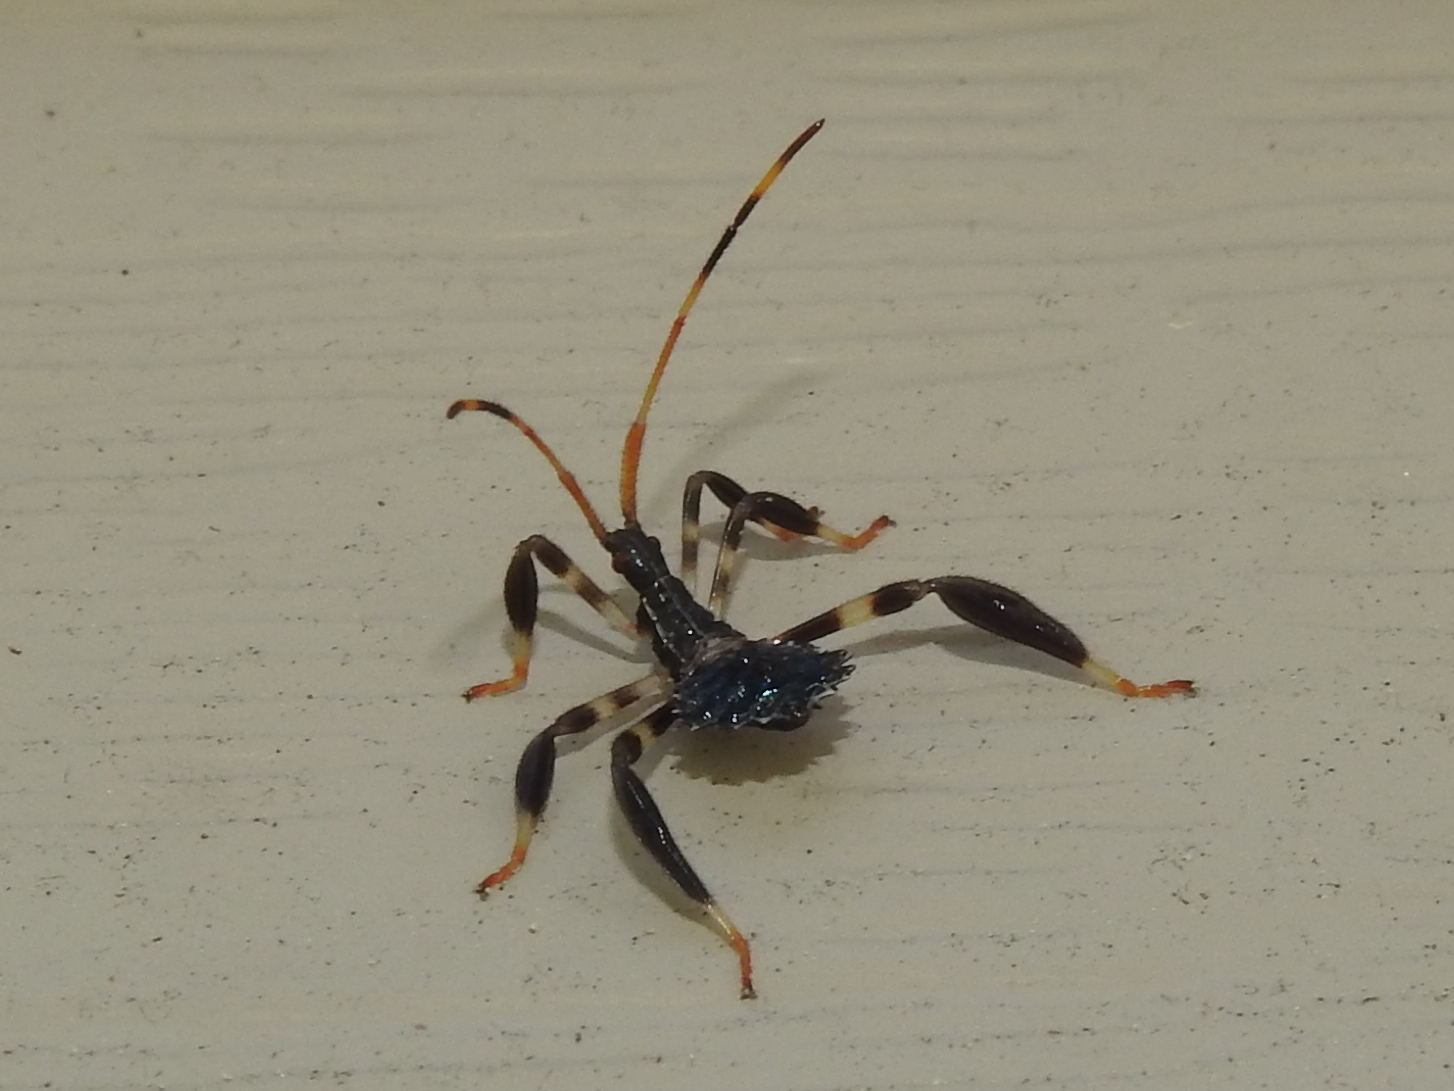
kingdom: Animalia
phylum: Arthropoda
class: Insecta
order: Hemiptera
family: Coreidae
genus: Acanthocephala
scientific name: Acanthocephala terminalis
